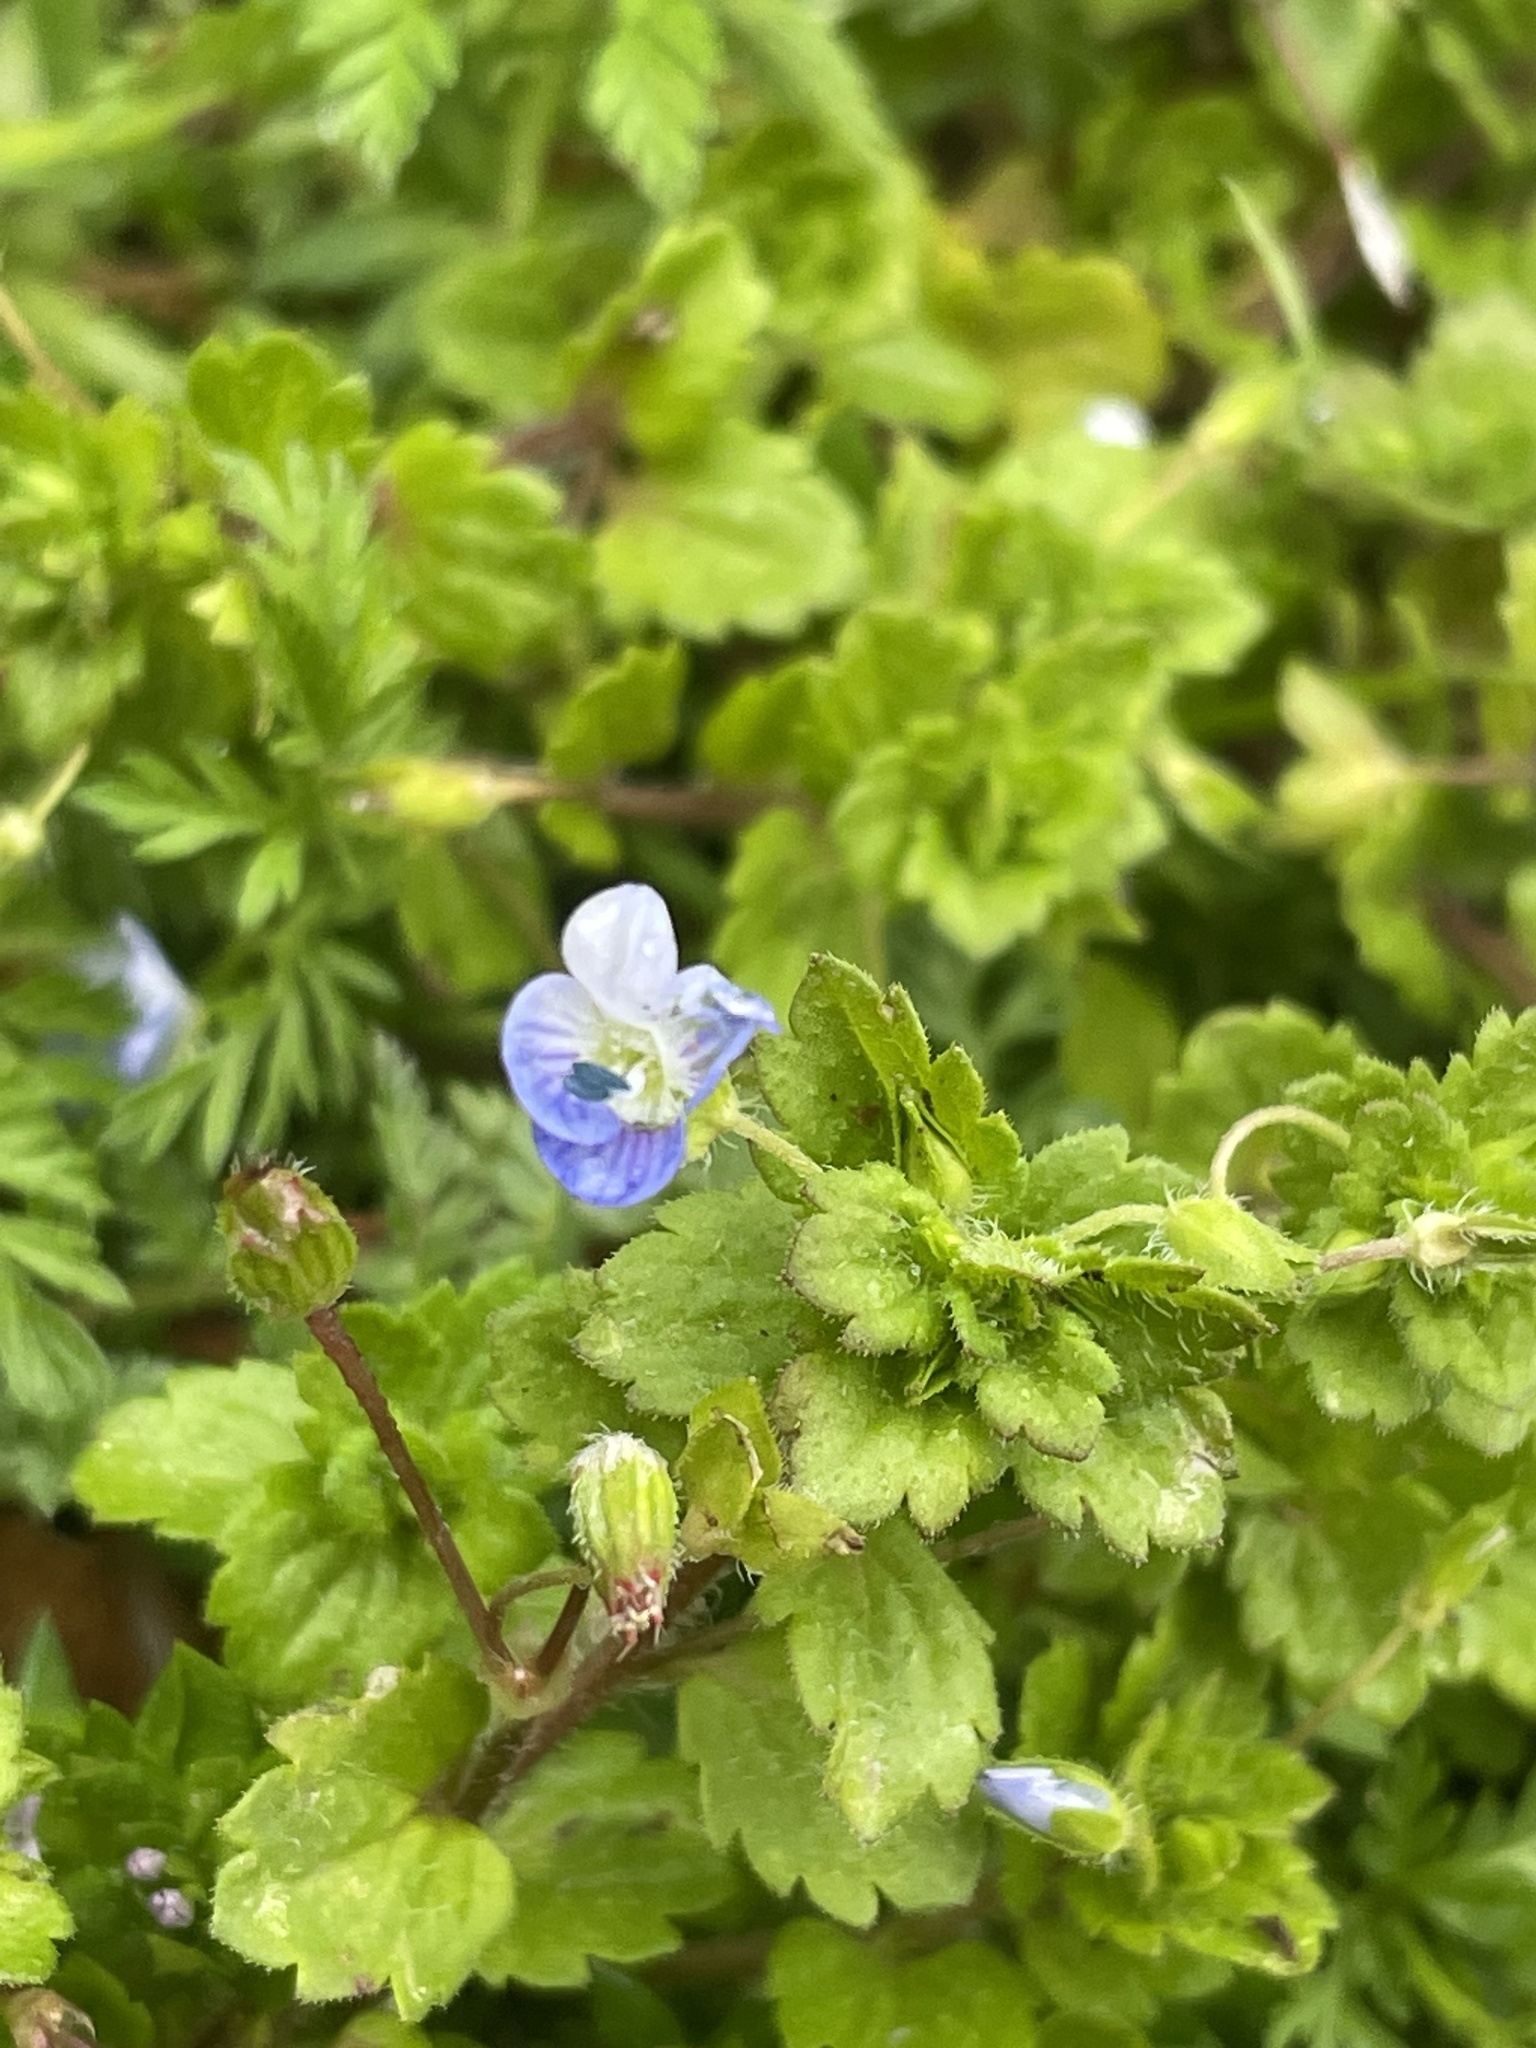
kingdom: Plantae
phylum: Tracheophyta
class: Magnoliopsida
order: Lamiales
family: Plantaginaceae
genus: Veronica
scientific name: Veronica persica
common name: Common field-speedwell
